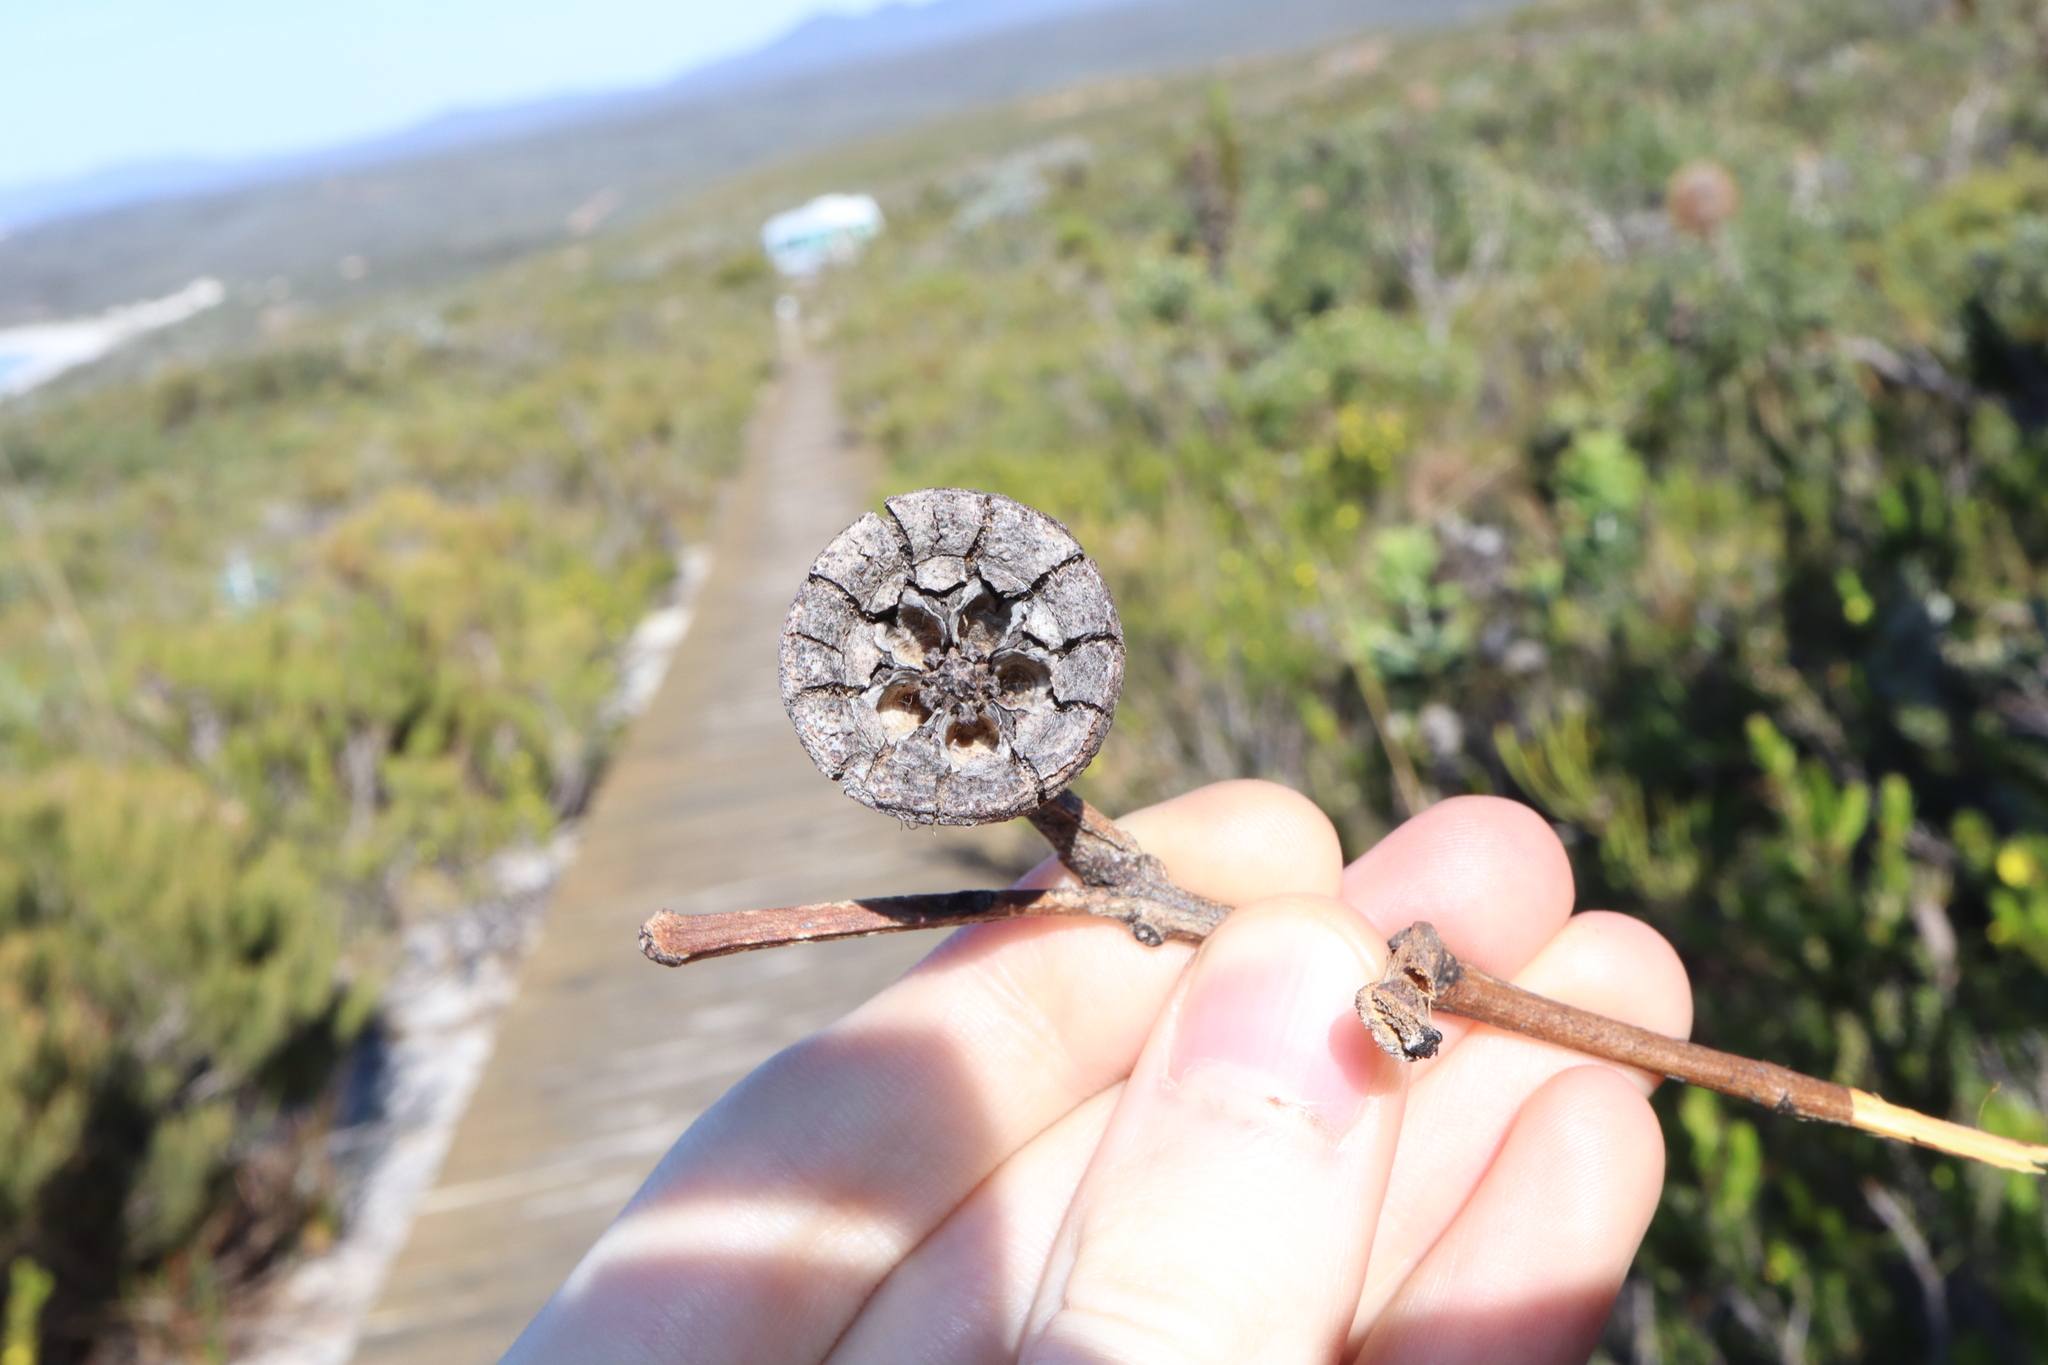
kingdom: Plantae
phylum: Tracheophyta
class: Magnoliopsida
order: Myrtales
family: Myrtaceae
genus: Eucalyptus
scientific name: Eucalyptus preissiana
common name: Stirling range mallee
